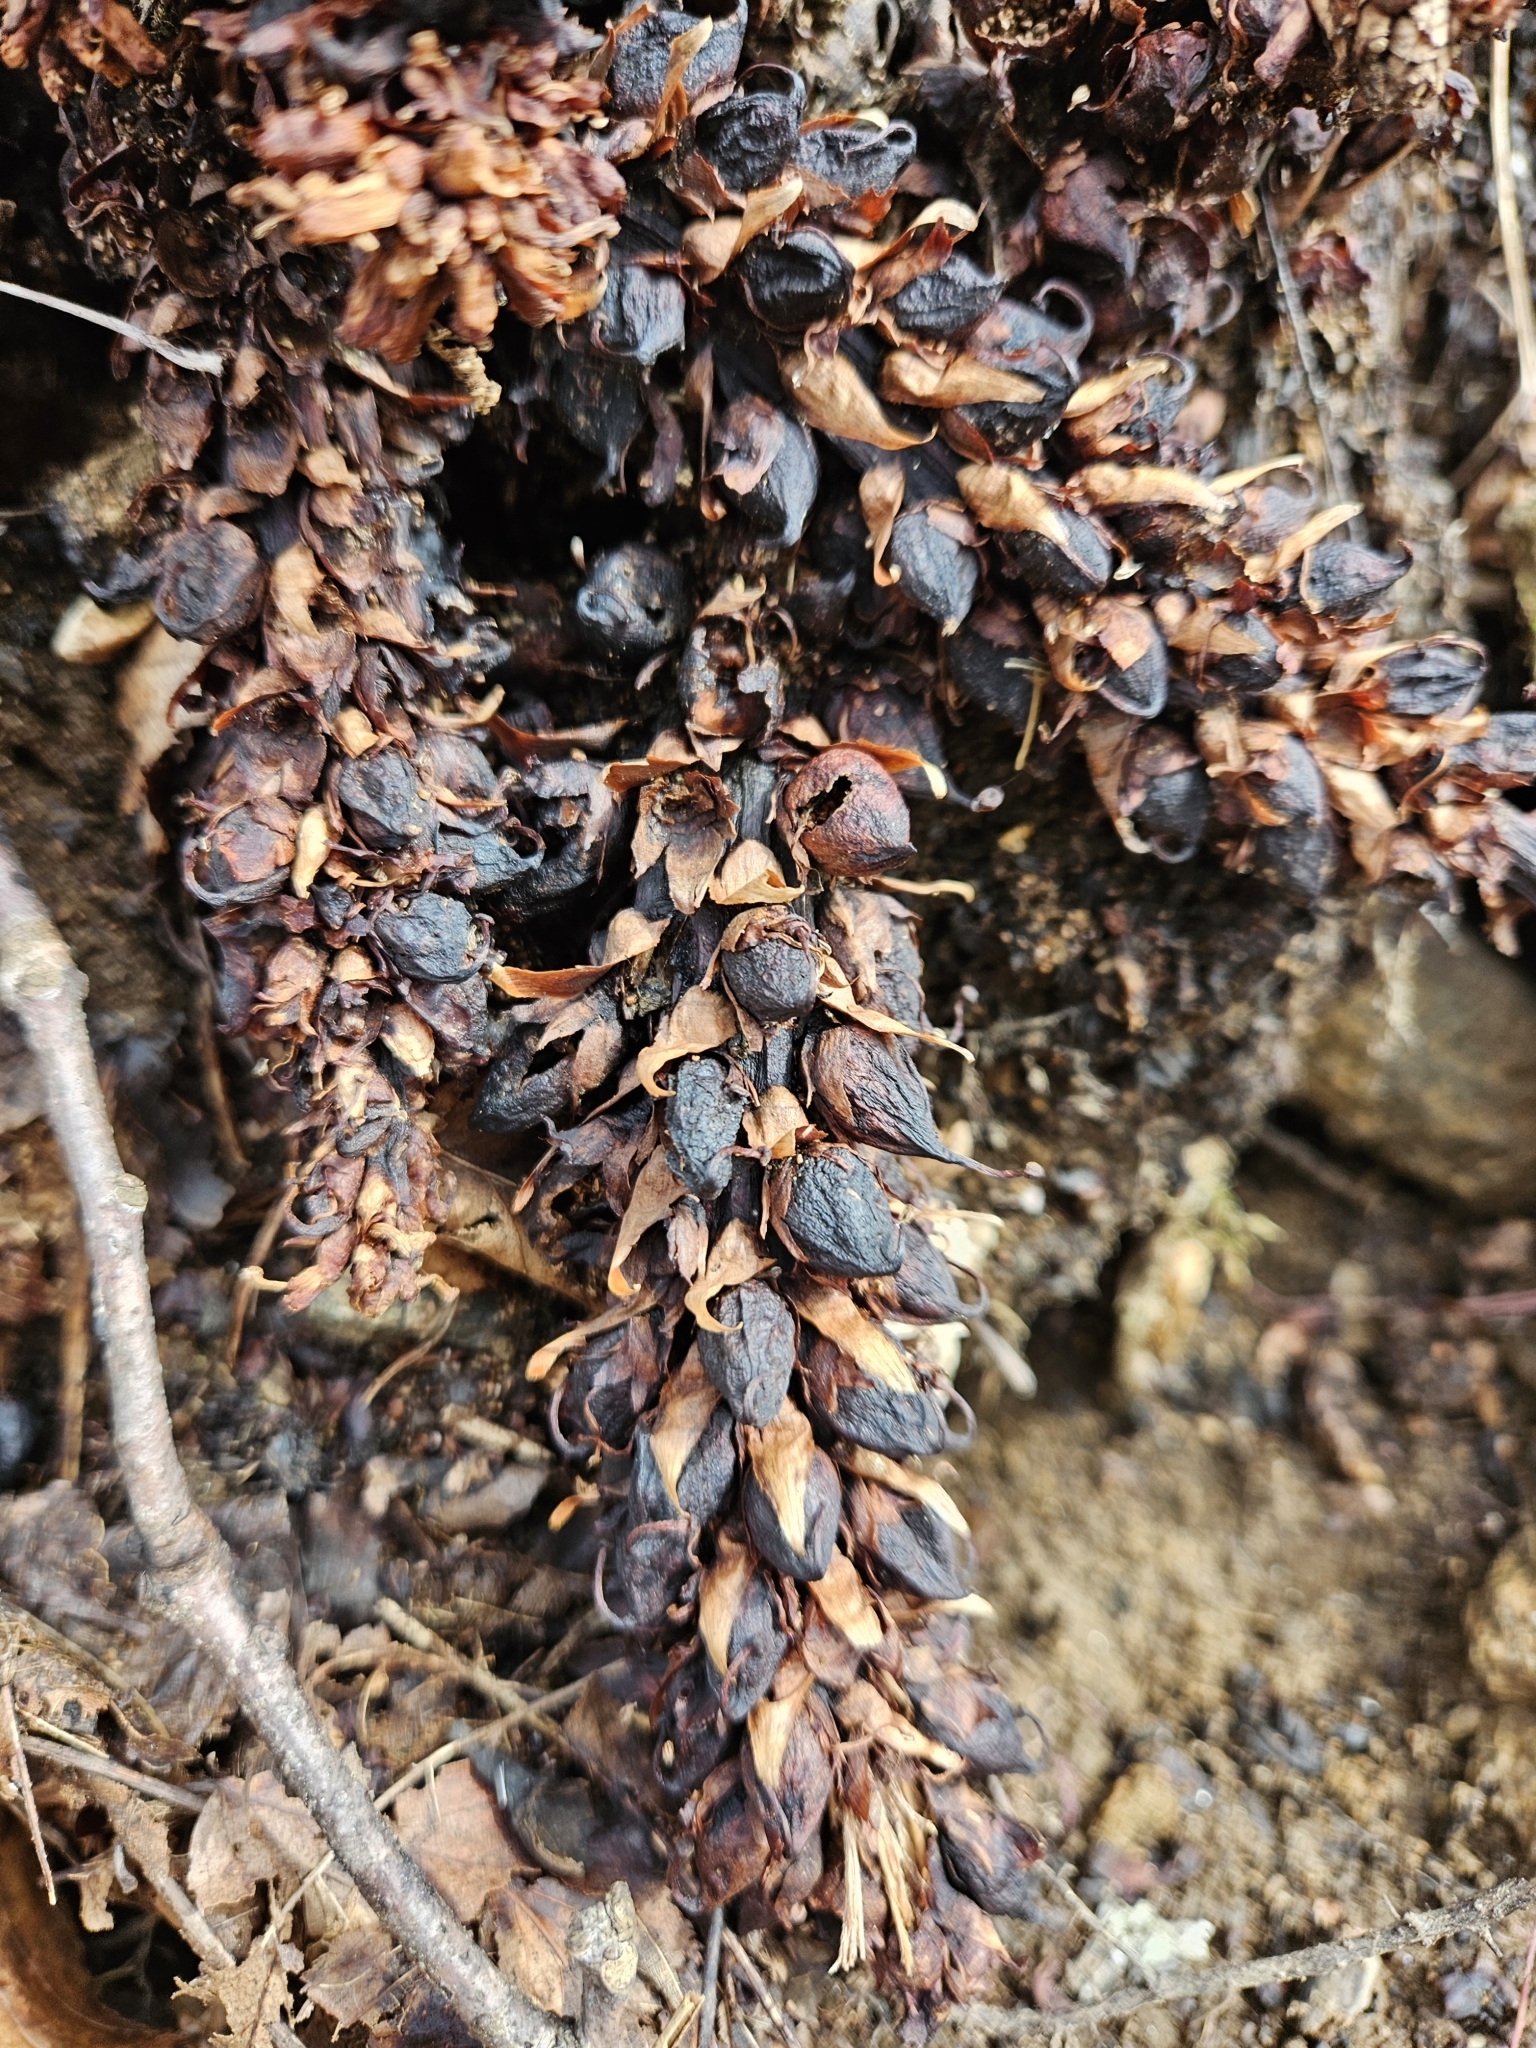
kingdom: Plantae
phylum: Tracheophyta
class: Magnoliopsida
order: Lamiales
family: Orobanchaceae
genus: Conopholis
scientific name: Conopholis americana
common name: American cancer-root
